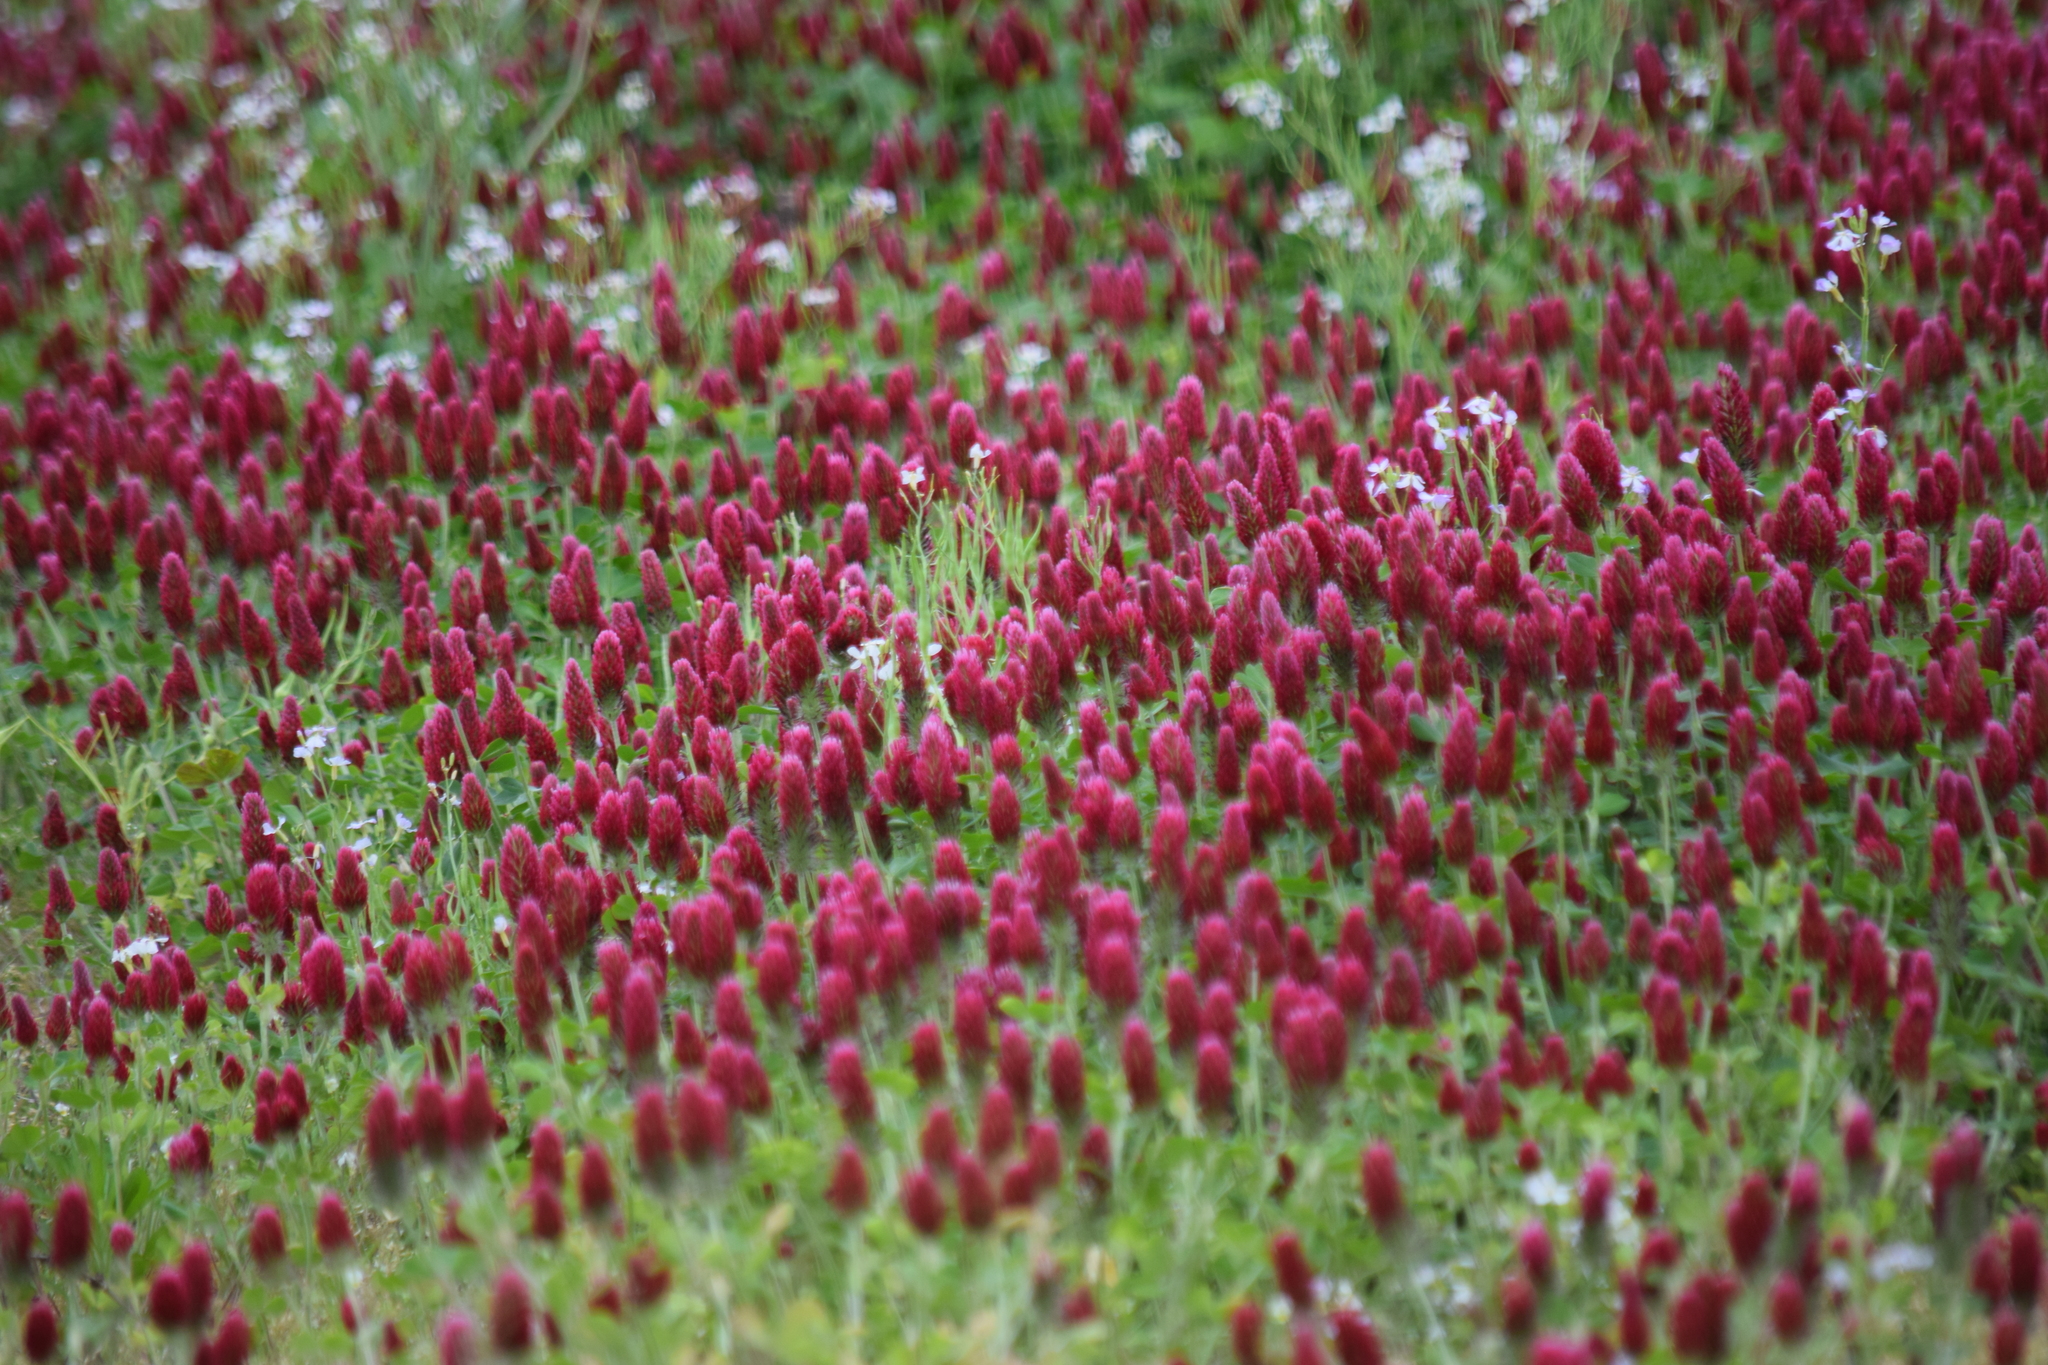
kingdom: Plantae
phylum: Tracheophyta
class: Magnoliopsida
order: Fabales
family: Fabaceae
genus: Trifolium
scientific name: Trifolium incarnatum
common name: Crimson clover
